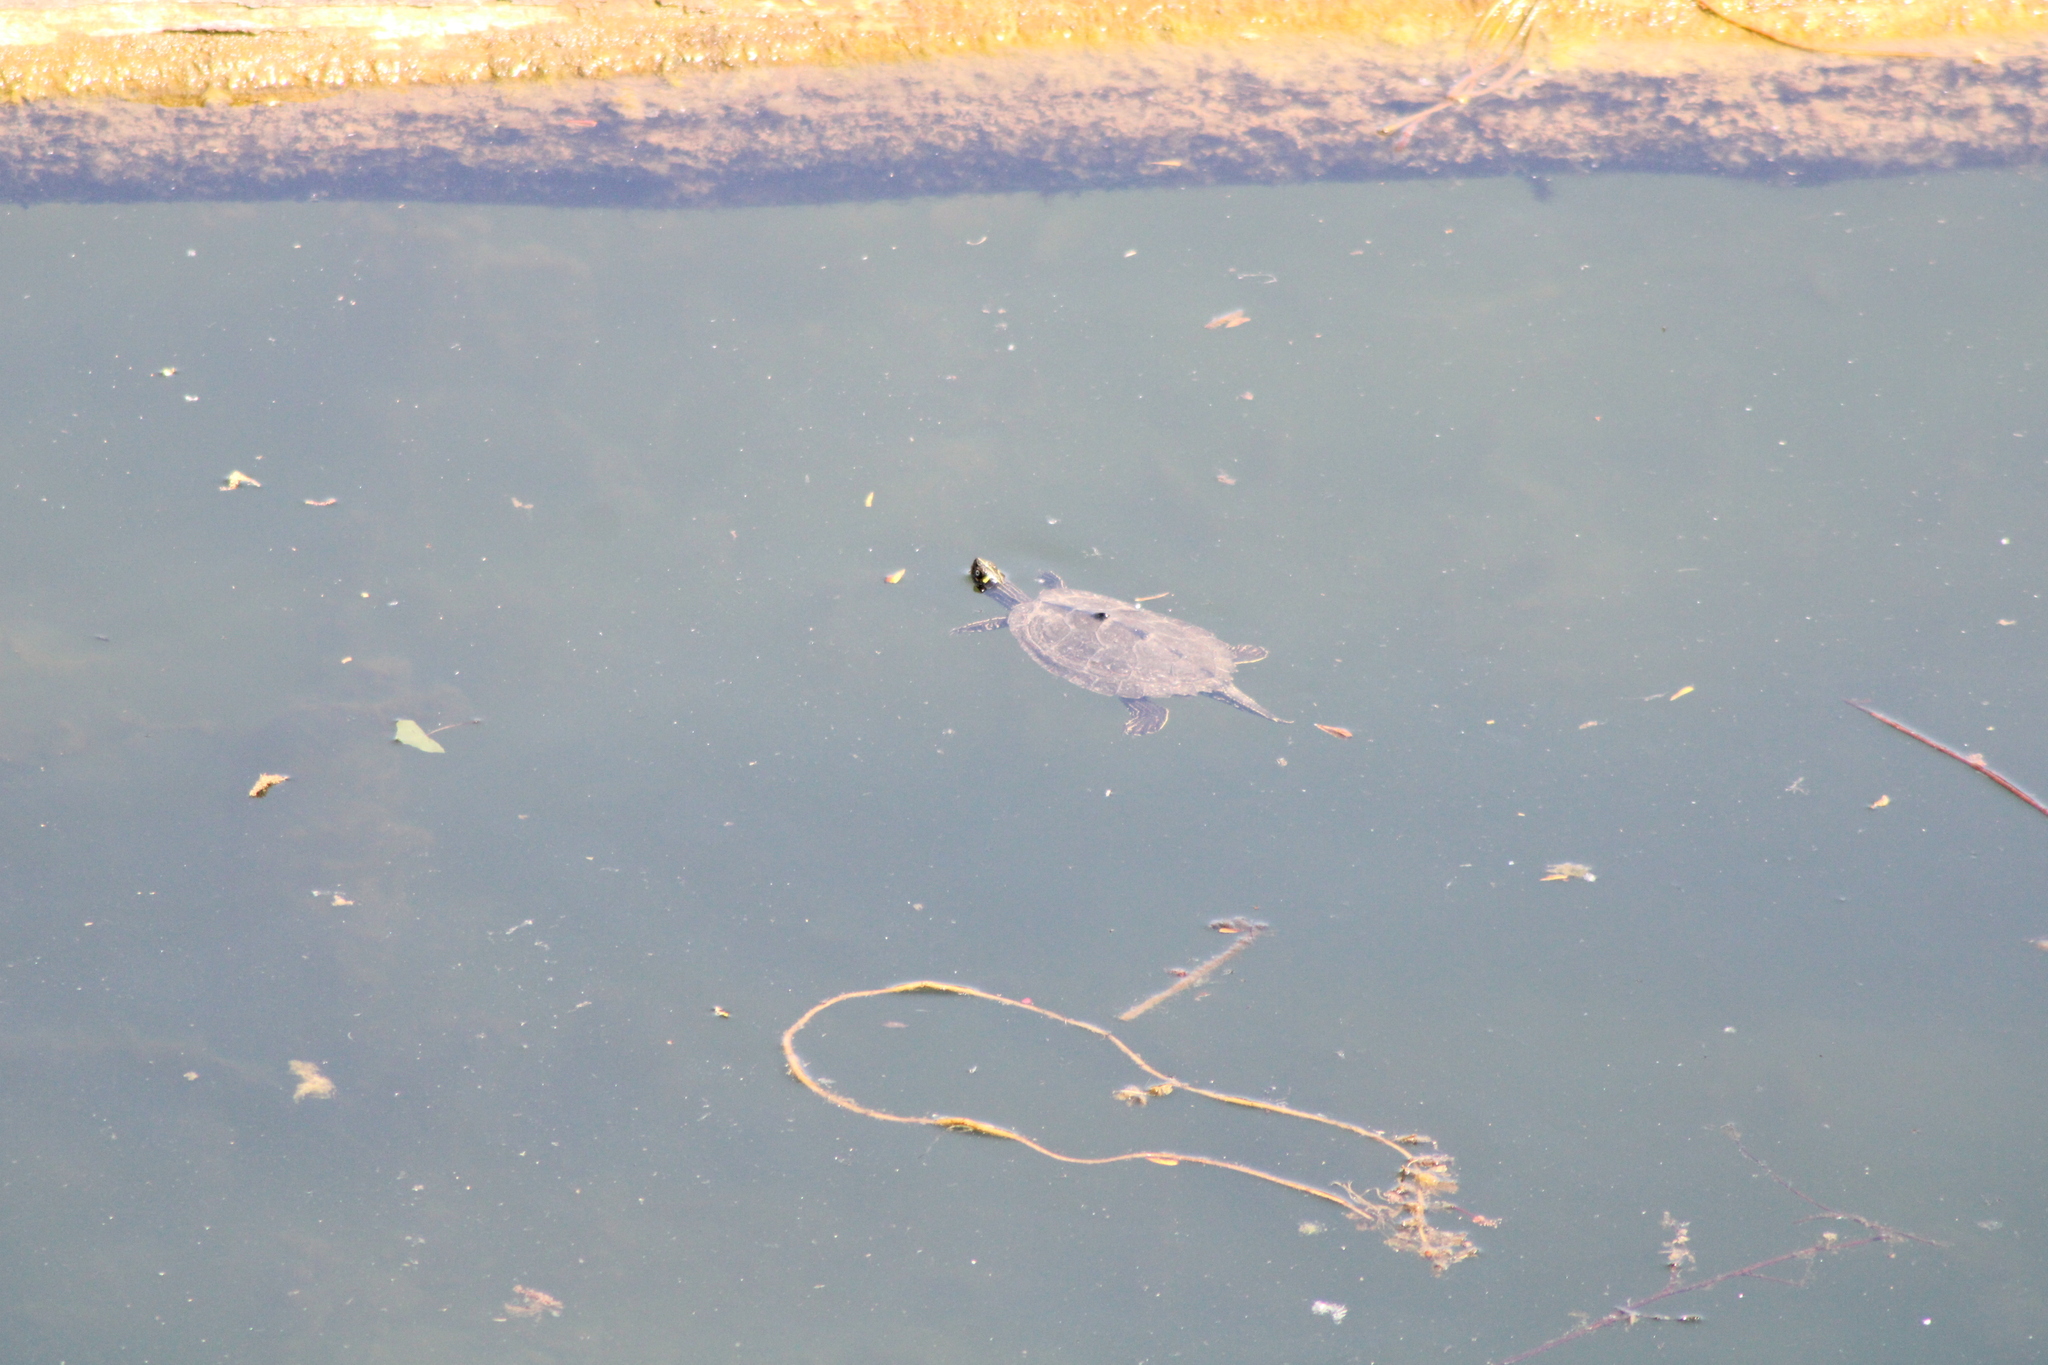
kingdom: Animalia
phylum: Chordata
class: Testudines
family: Emydidae
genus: Graptemys
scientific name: Graptemys pseudogeographica
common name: False map turtle
